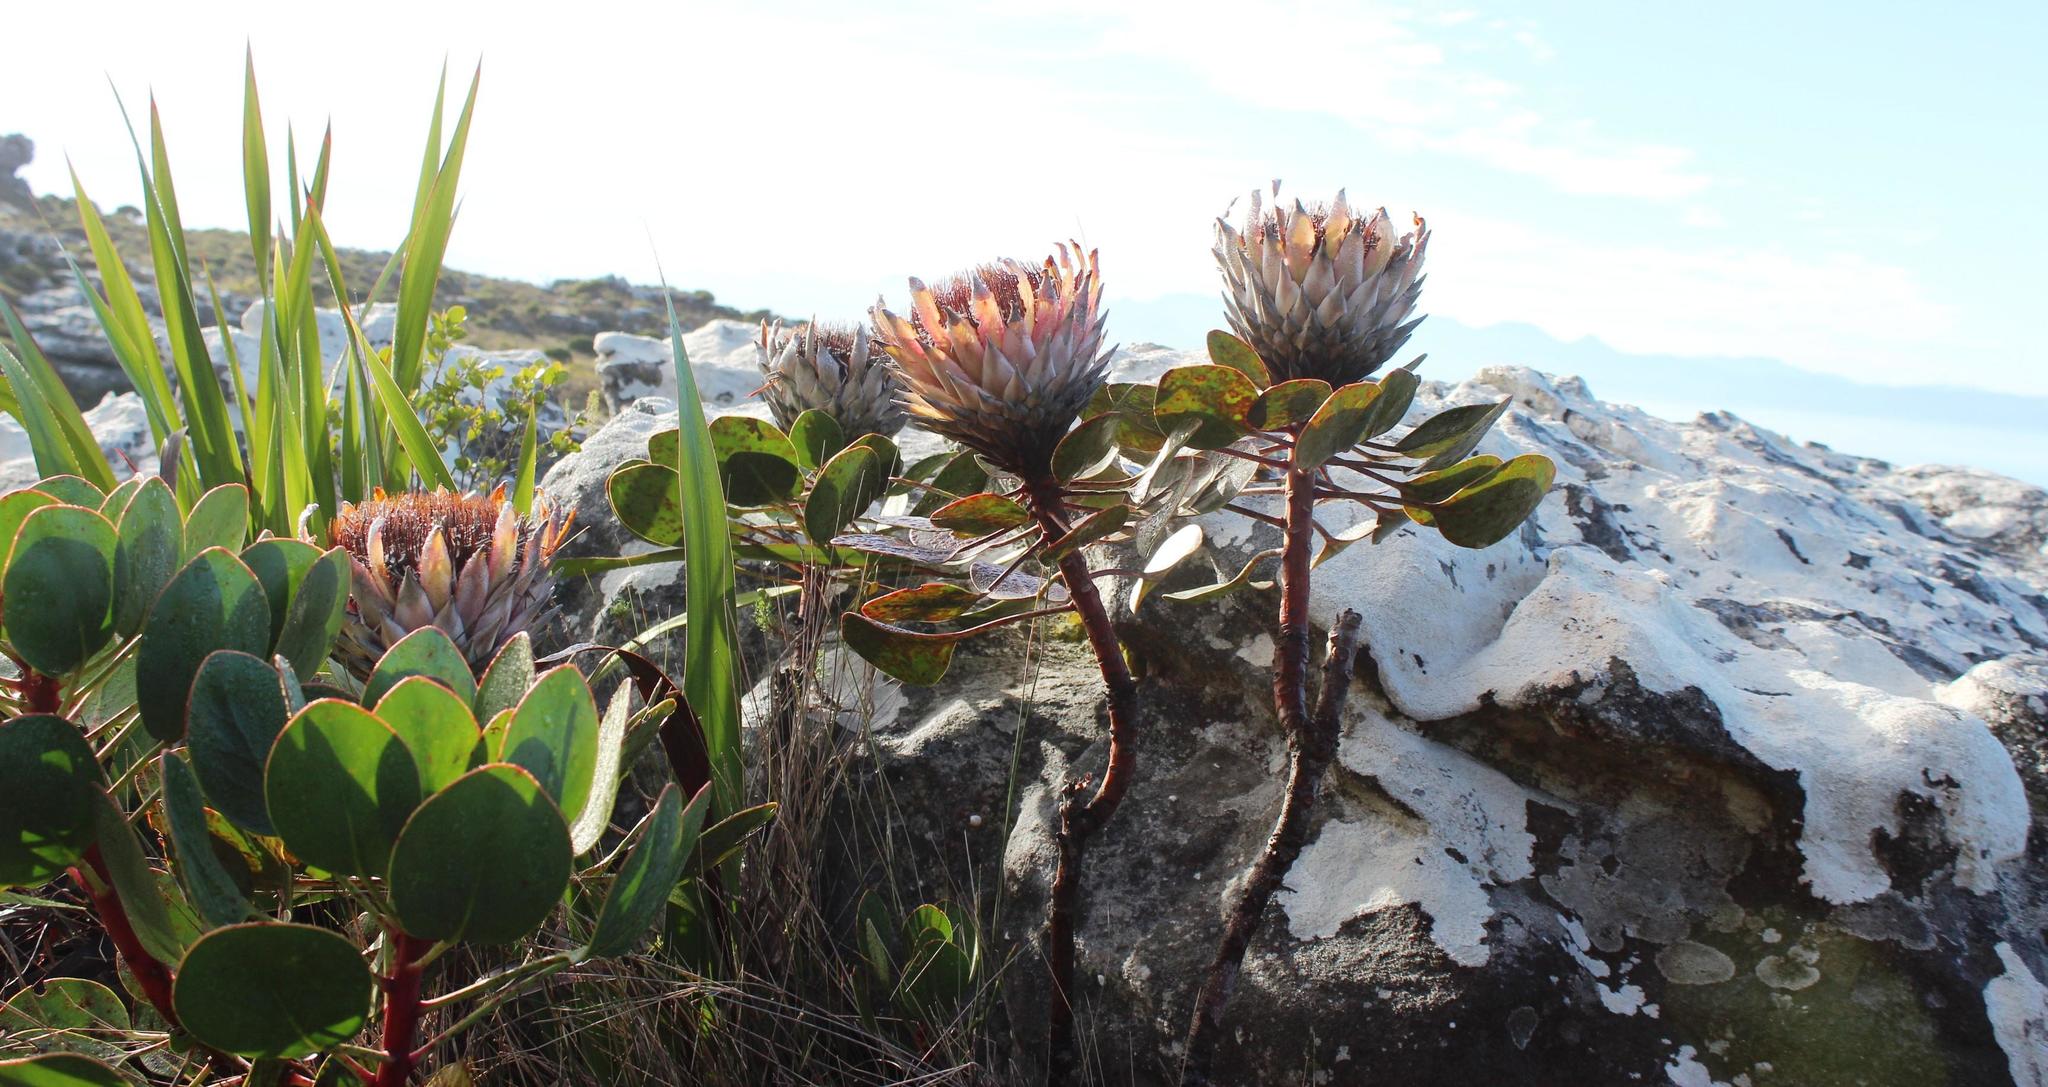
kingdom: Plantae
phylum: Tracheophyta
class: Magnoliopsida
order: Proteales
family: Proteaceae
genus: Protea
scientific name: Protea cynaroides
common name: King protea
